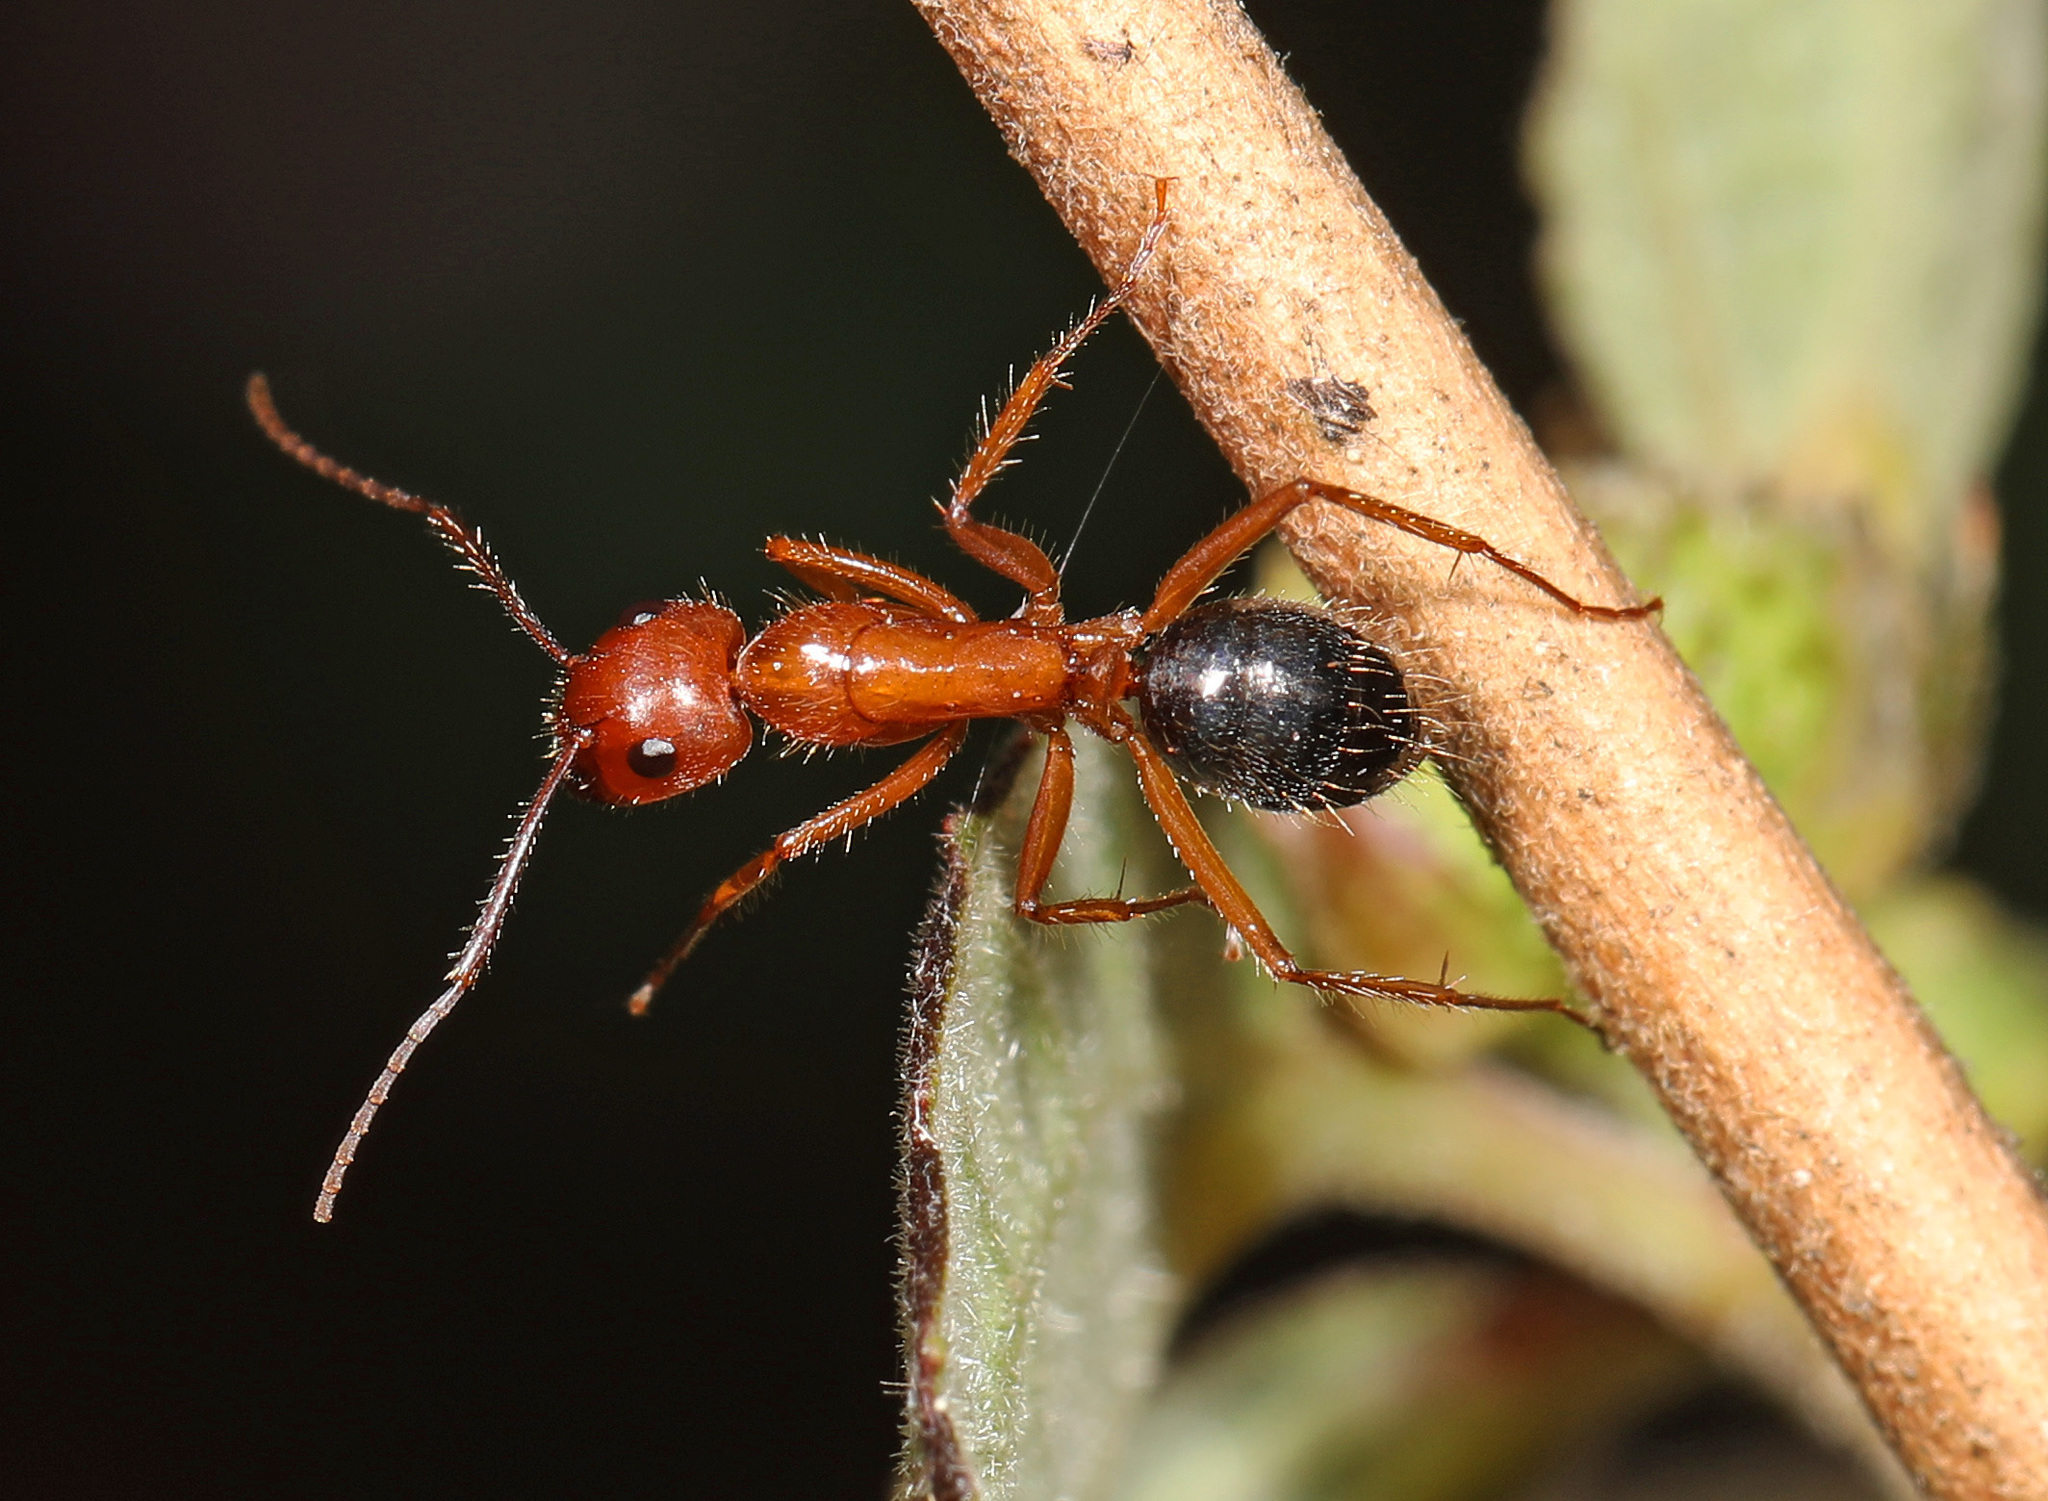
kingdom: Animalia
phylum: Arthropoda
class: Insecta
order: Hymenoptera
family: Formicidae
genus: Camponotus
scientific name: Camponotus floridanus
